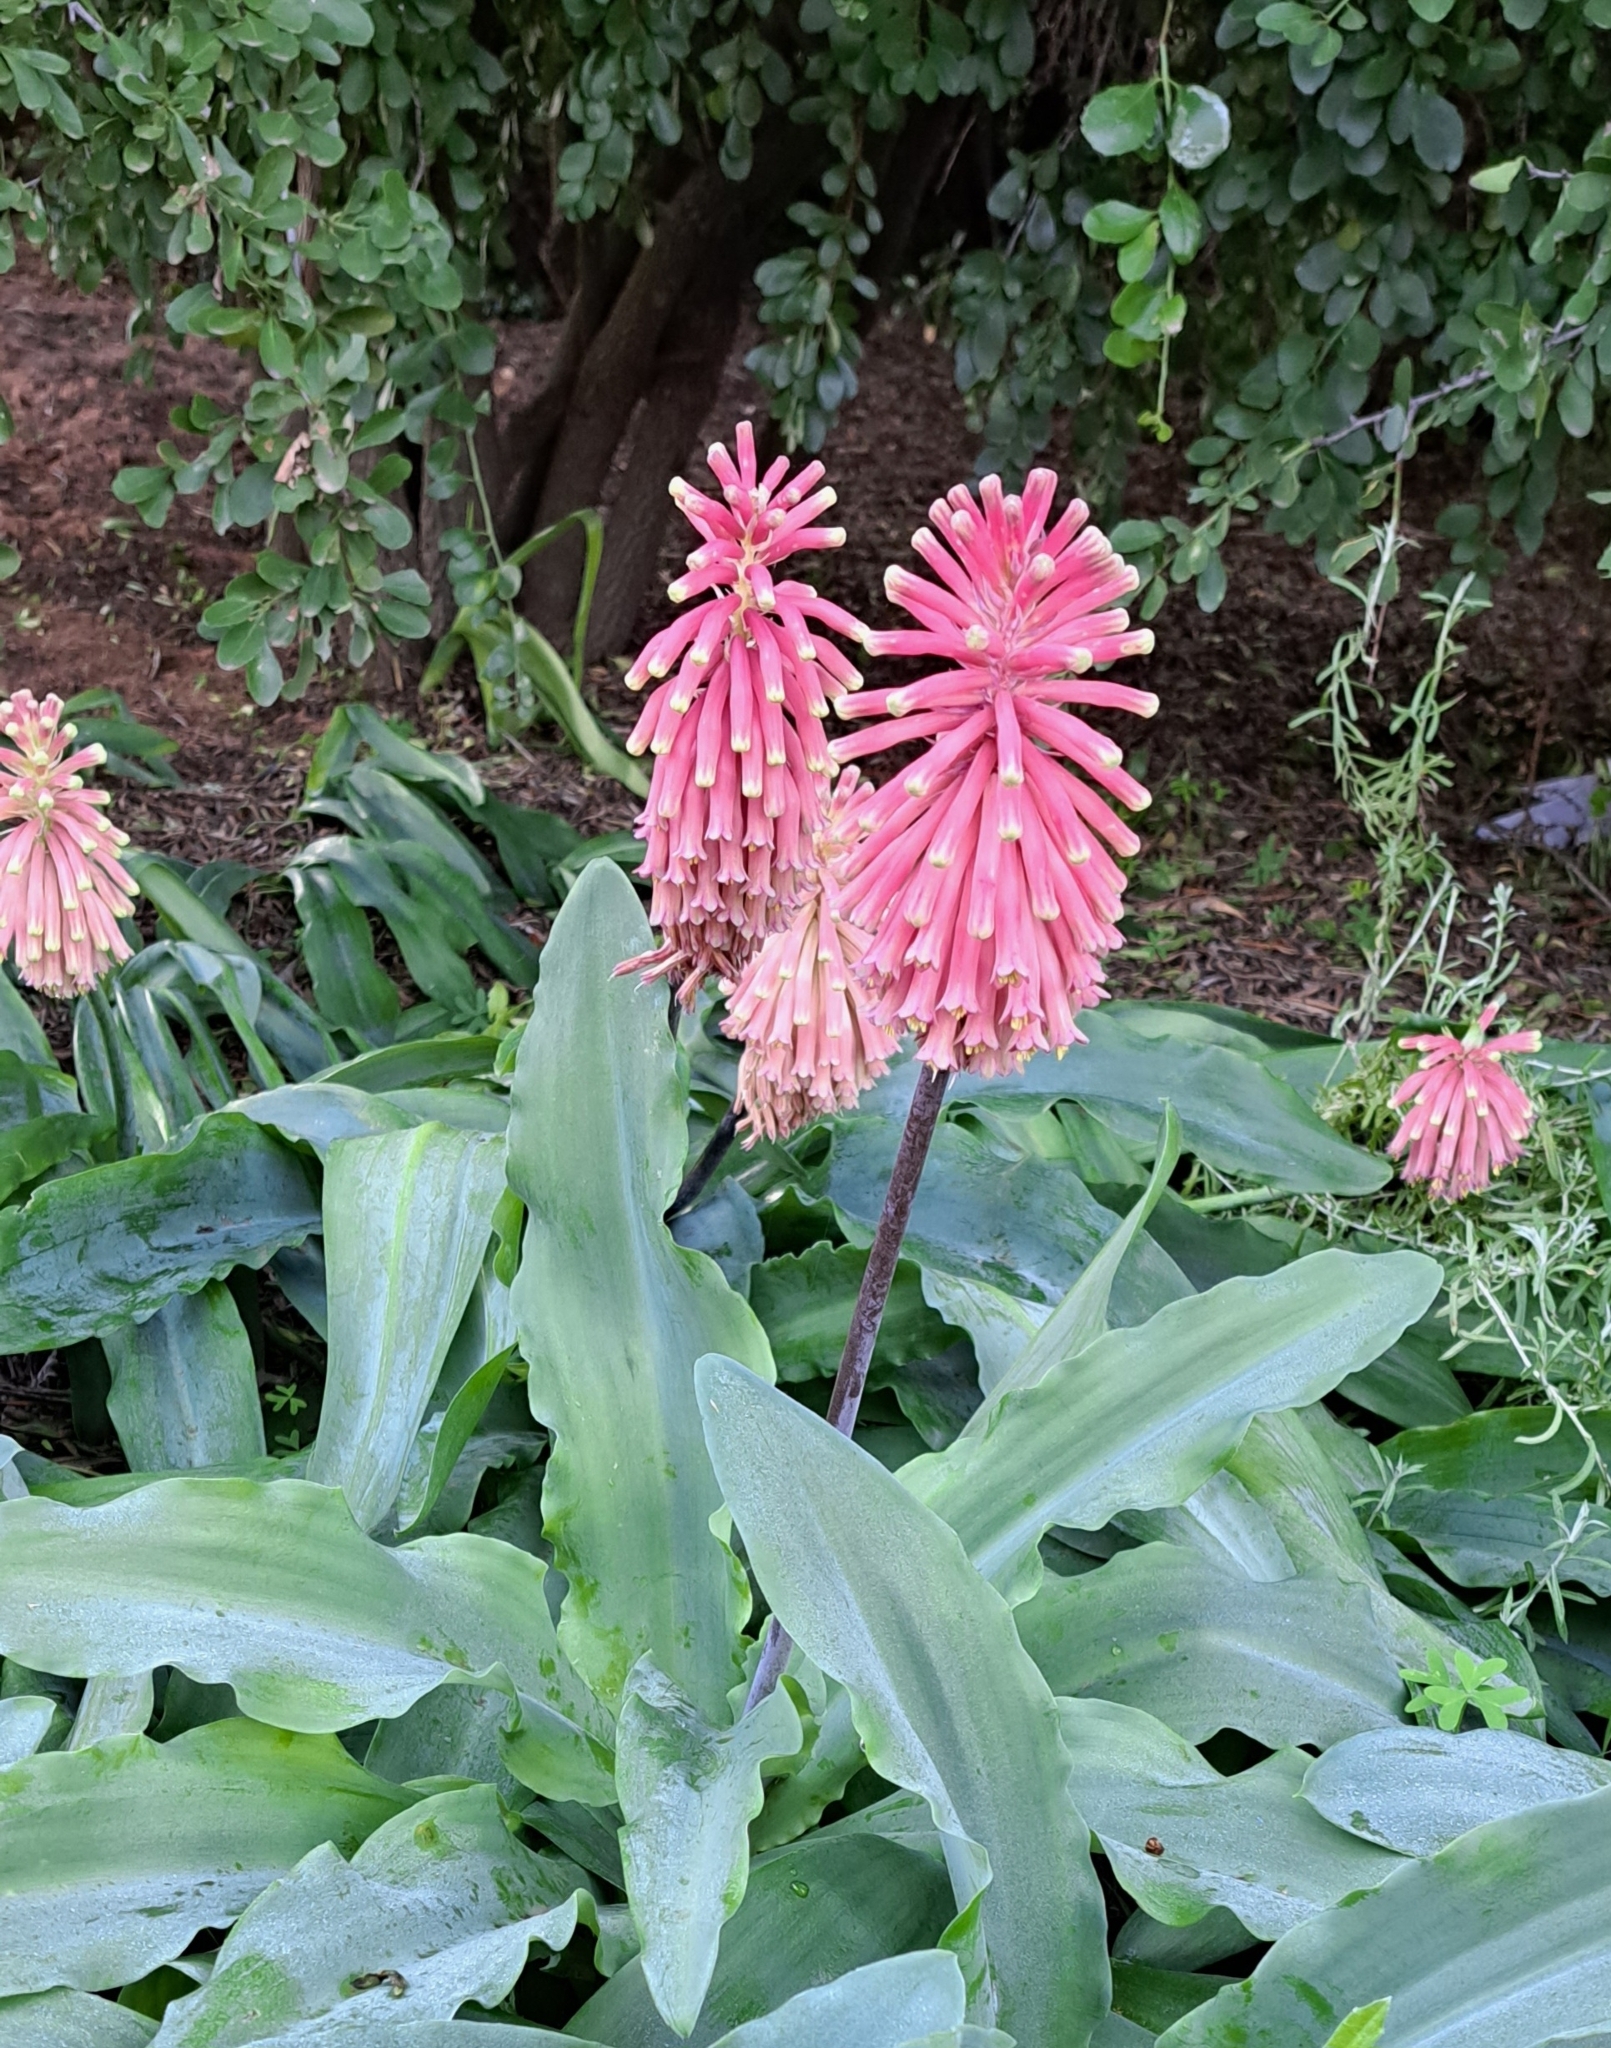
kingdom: Plantae
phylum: Tracheophyta
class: Liliopsida
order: Asparagales
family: Asparagaceae
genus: Veltheimia
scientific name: Veltheimia capensis
